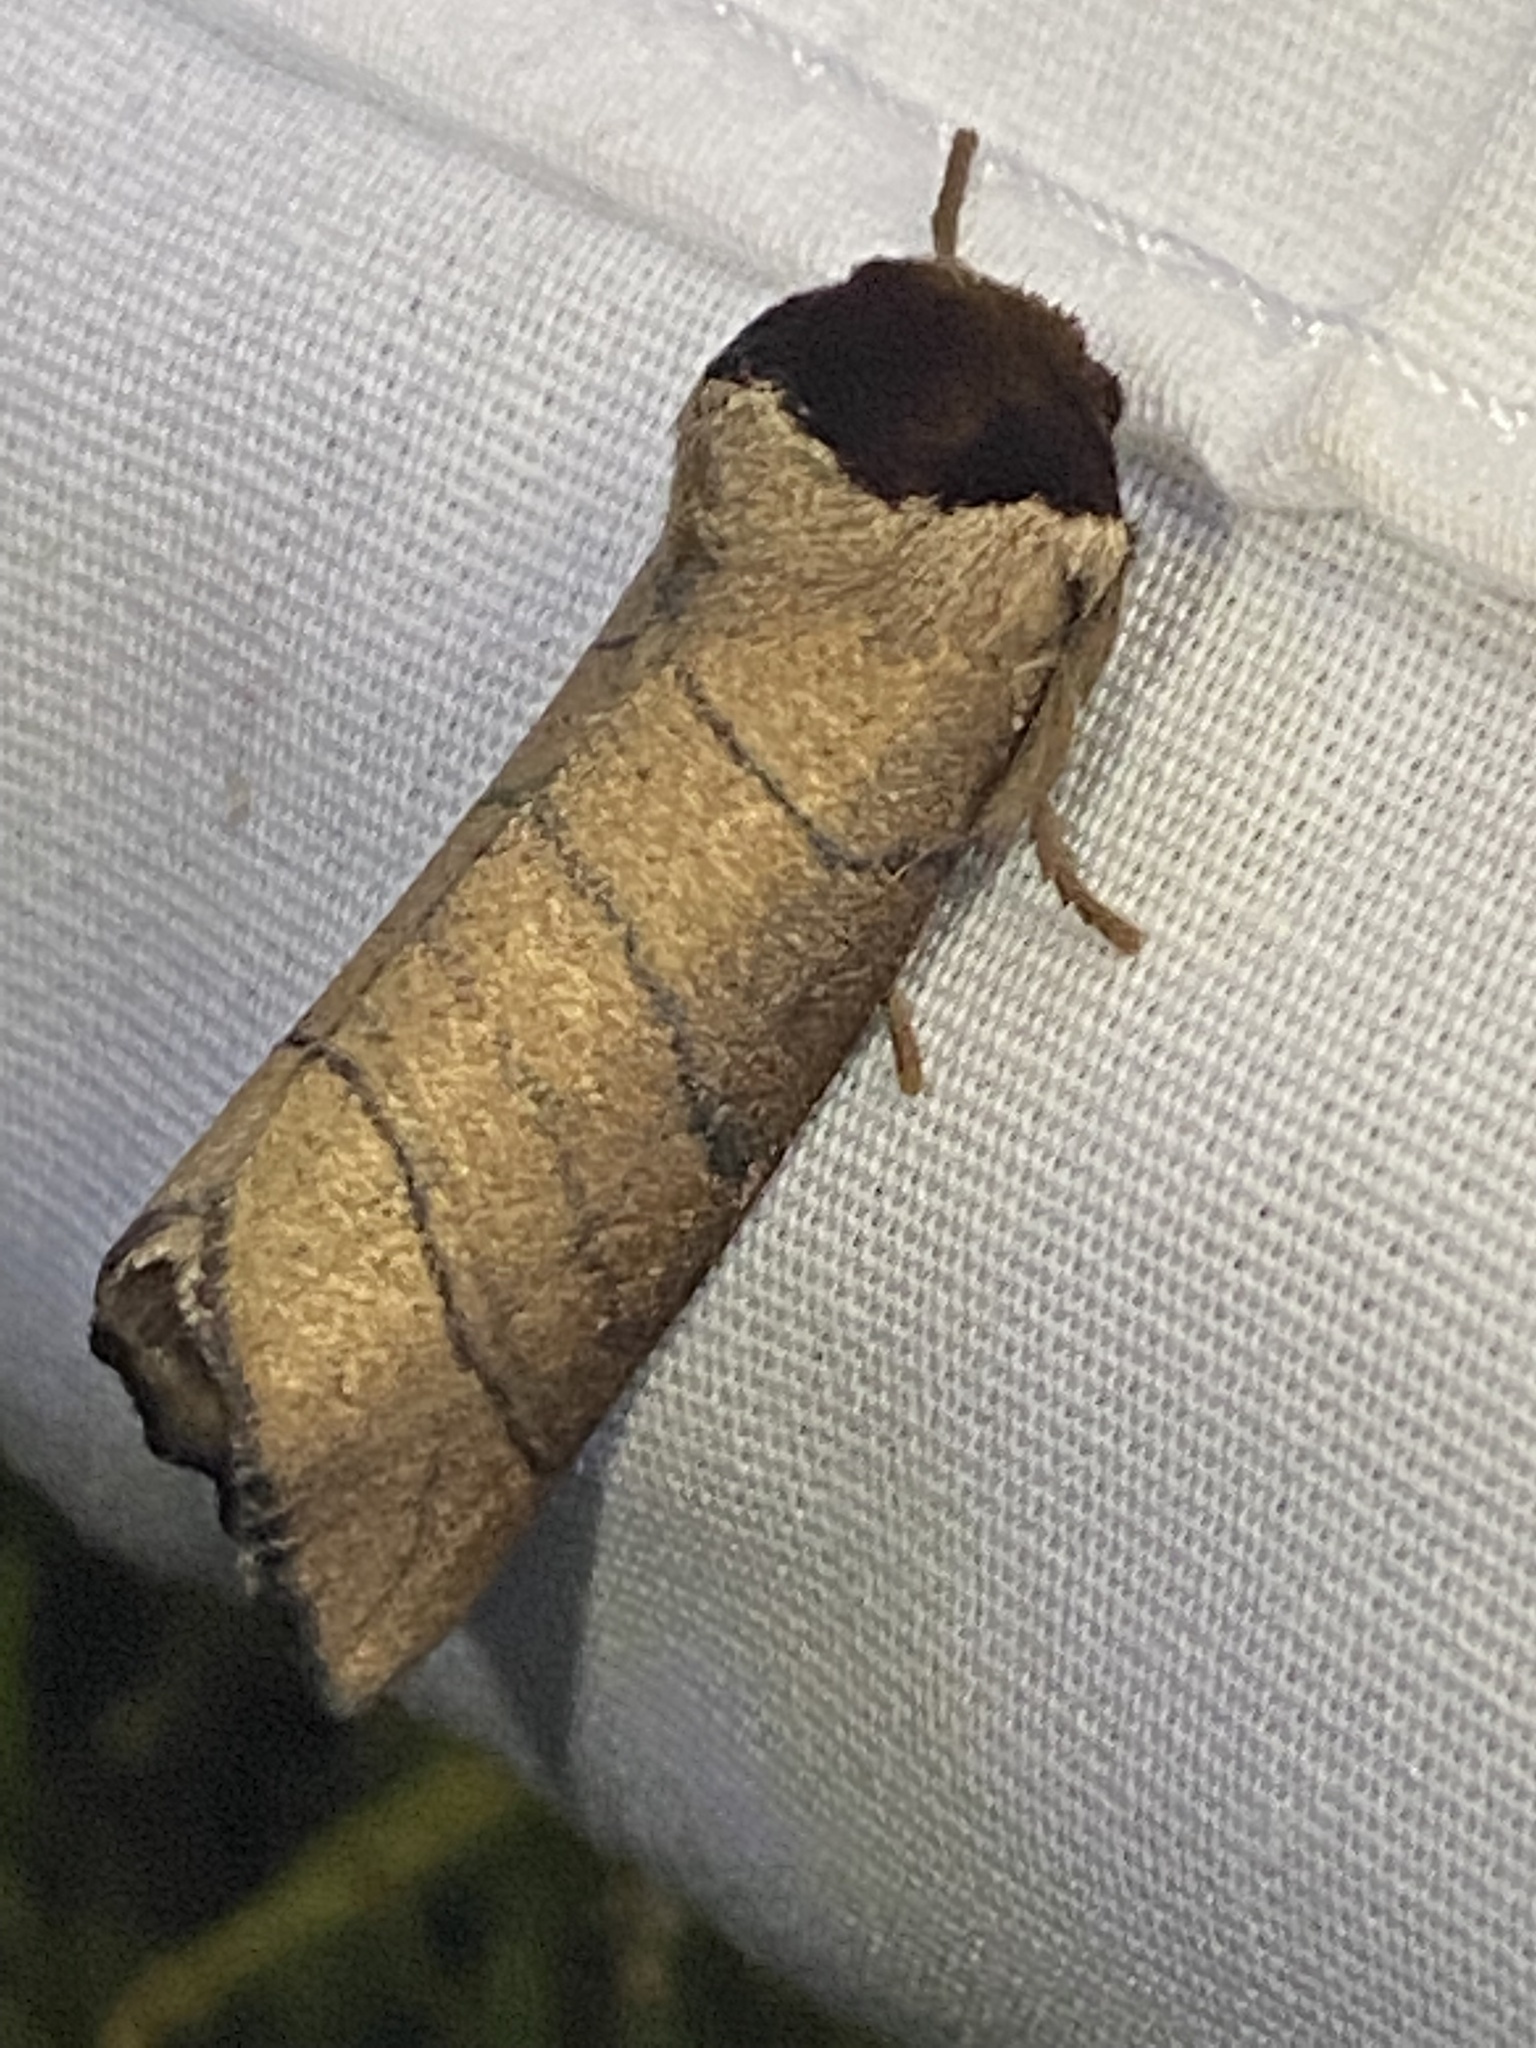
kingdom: Animalia
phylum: Arthropoda
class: Insecta
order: Lepidoptera
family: Notodontidae
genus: Datana
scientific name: Datana angusii
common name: Angus's datana
